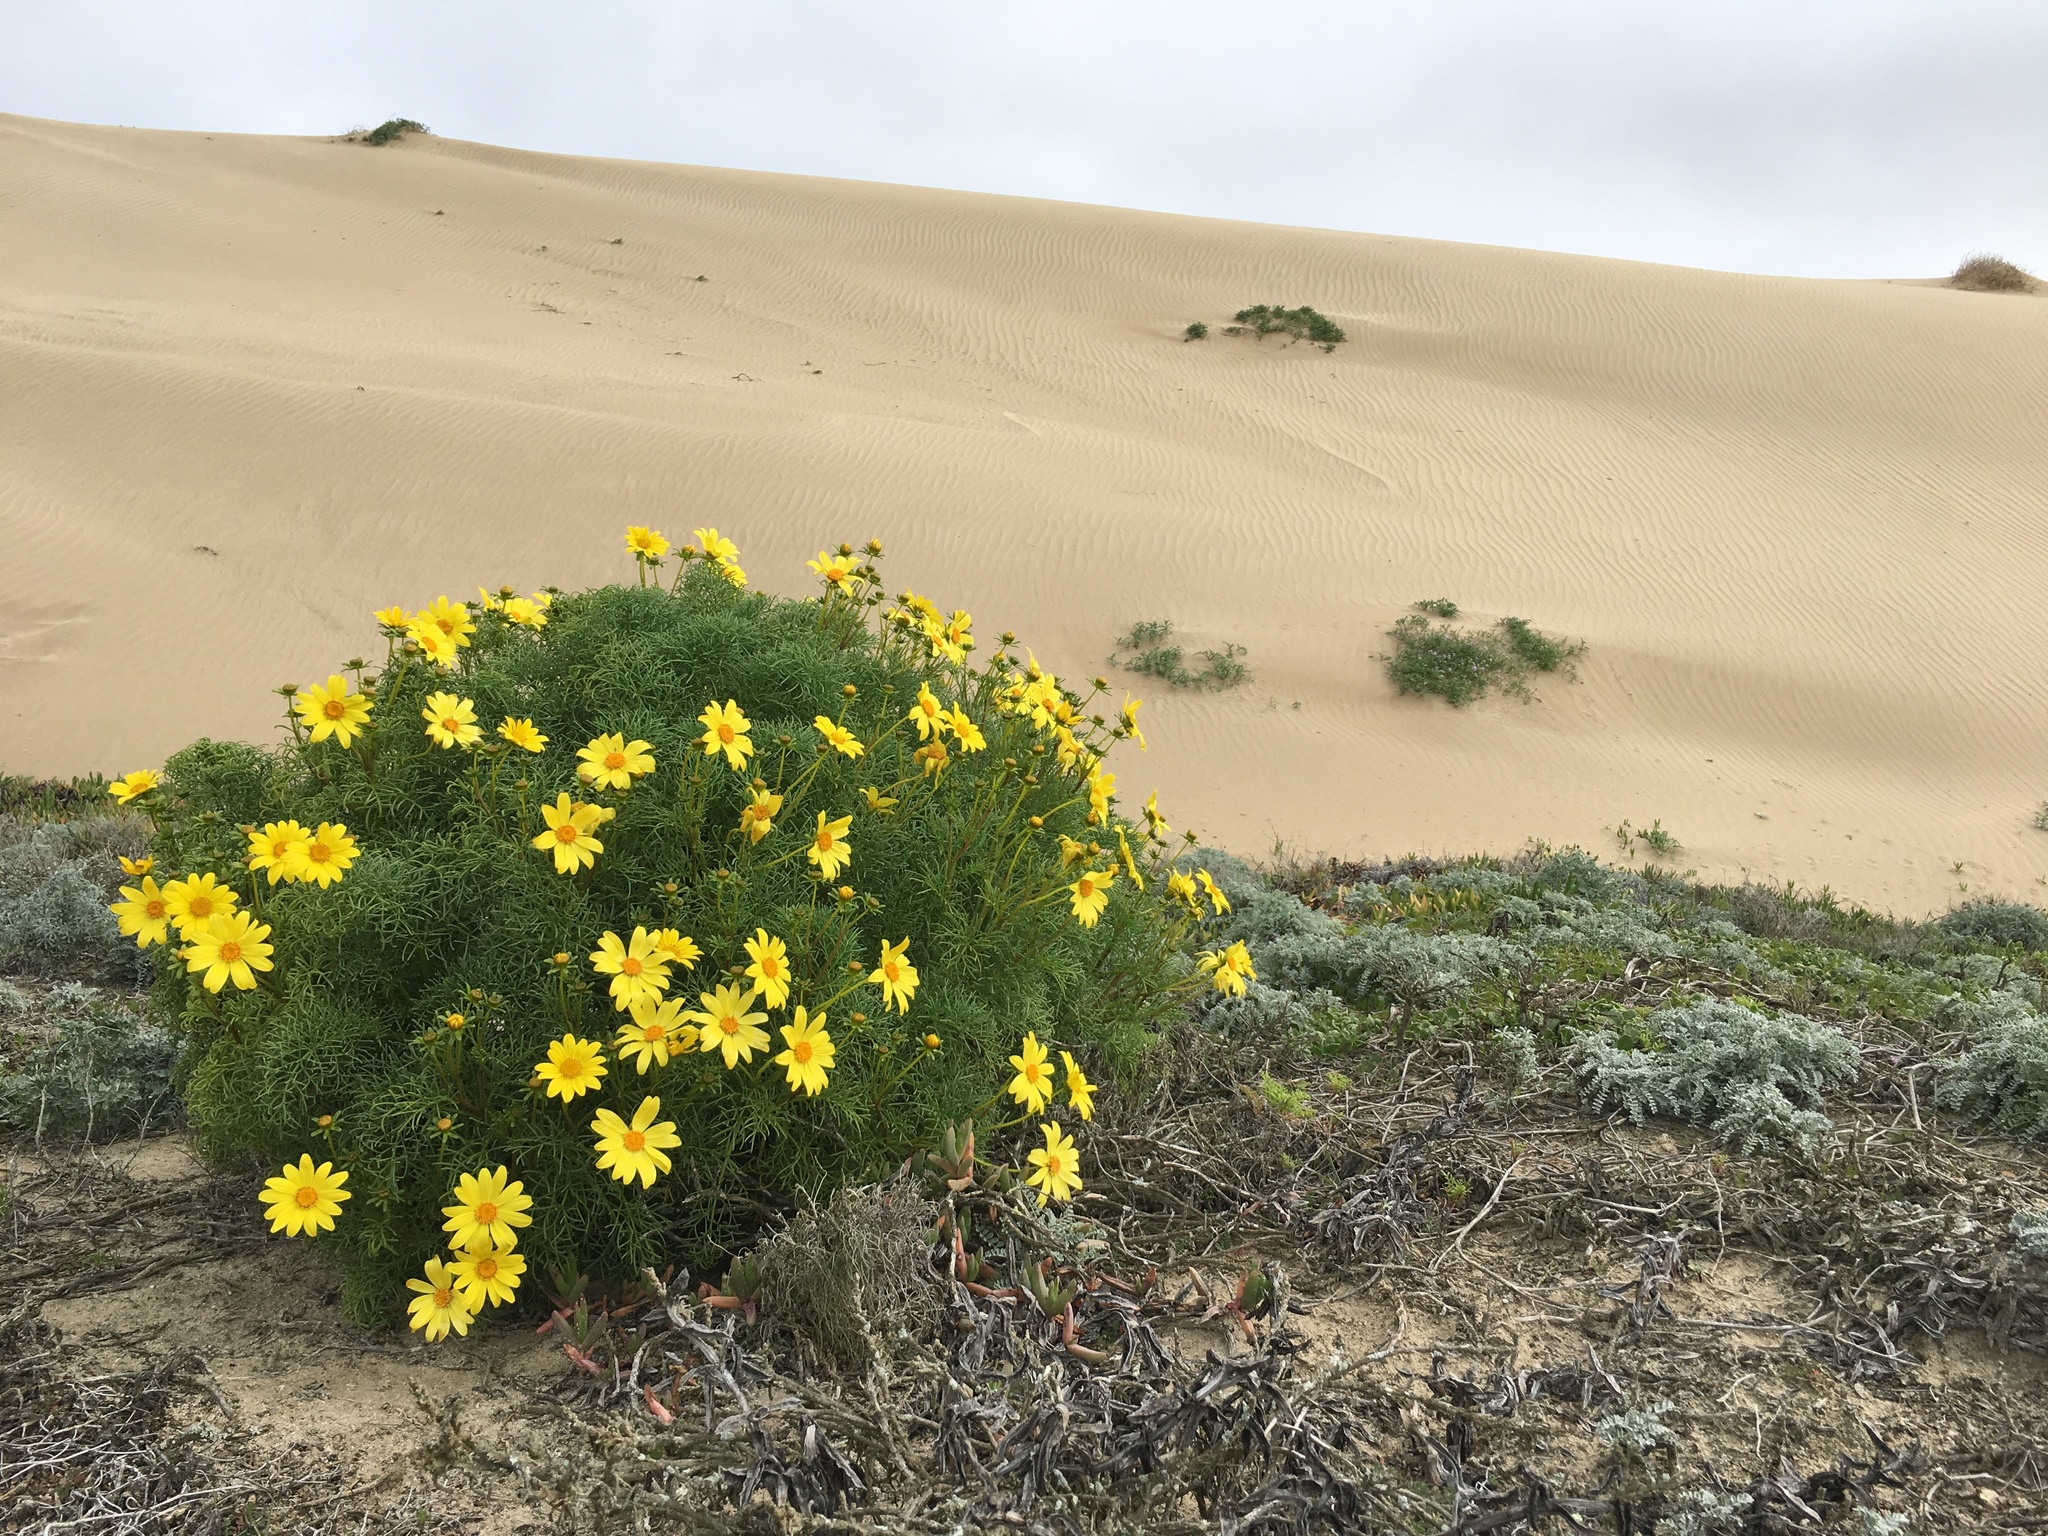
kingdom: Plantae
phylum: Tracheophyta
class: Magnoliopsida
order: Asterales
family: Asteraceae
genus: Coreopsis
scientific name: Coreopsis gigantea
